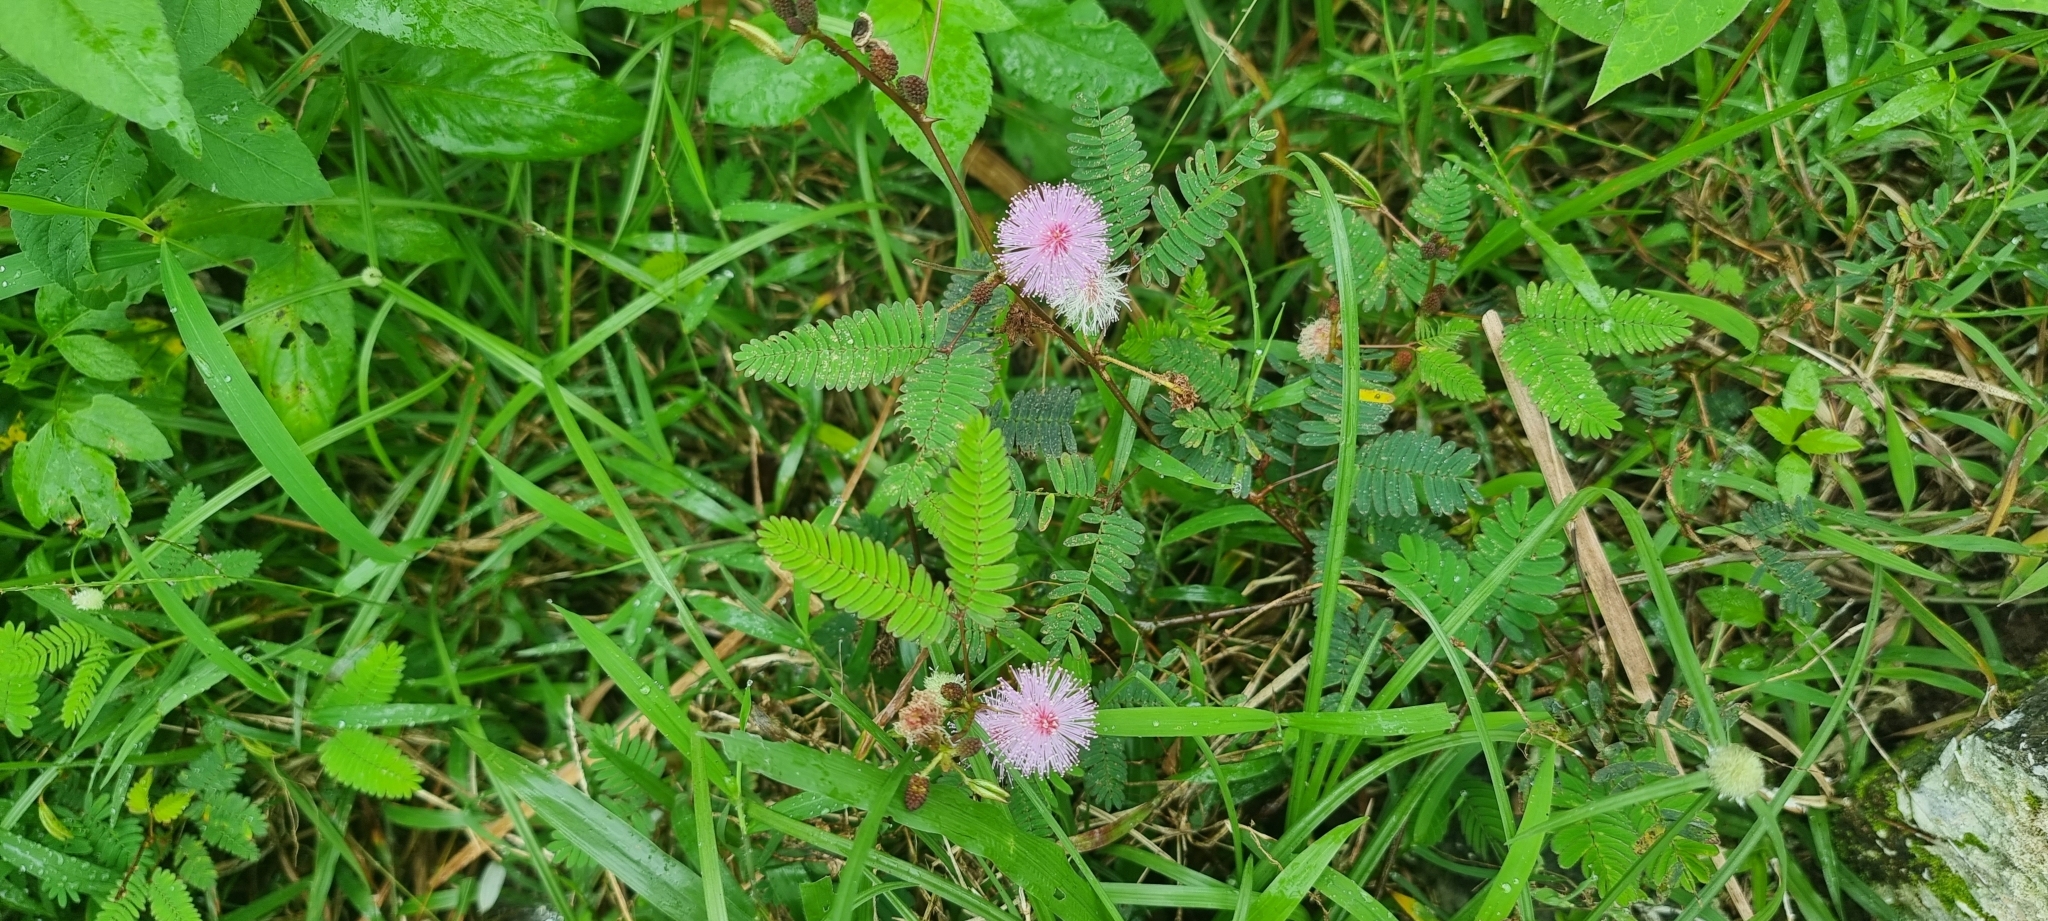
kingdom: Plantae
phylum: Tracheophyta
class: Magnoliopsida
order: Fabales
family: Fabaceae
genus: Mimosa
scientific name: Mimosa pudica
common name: Sensitive plant
